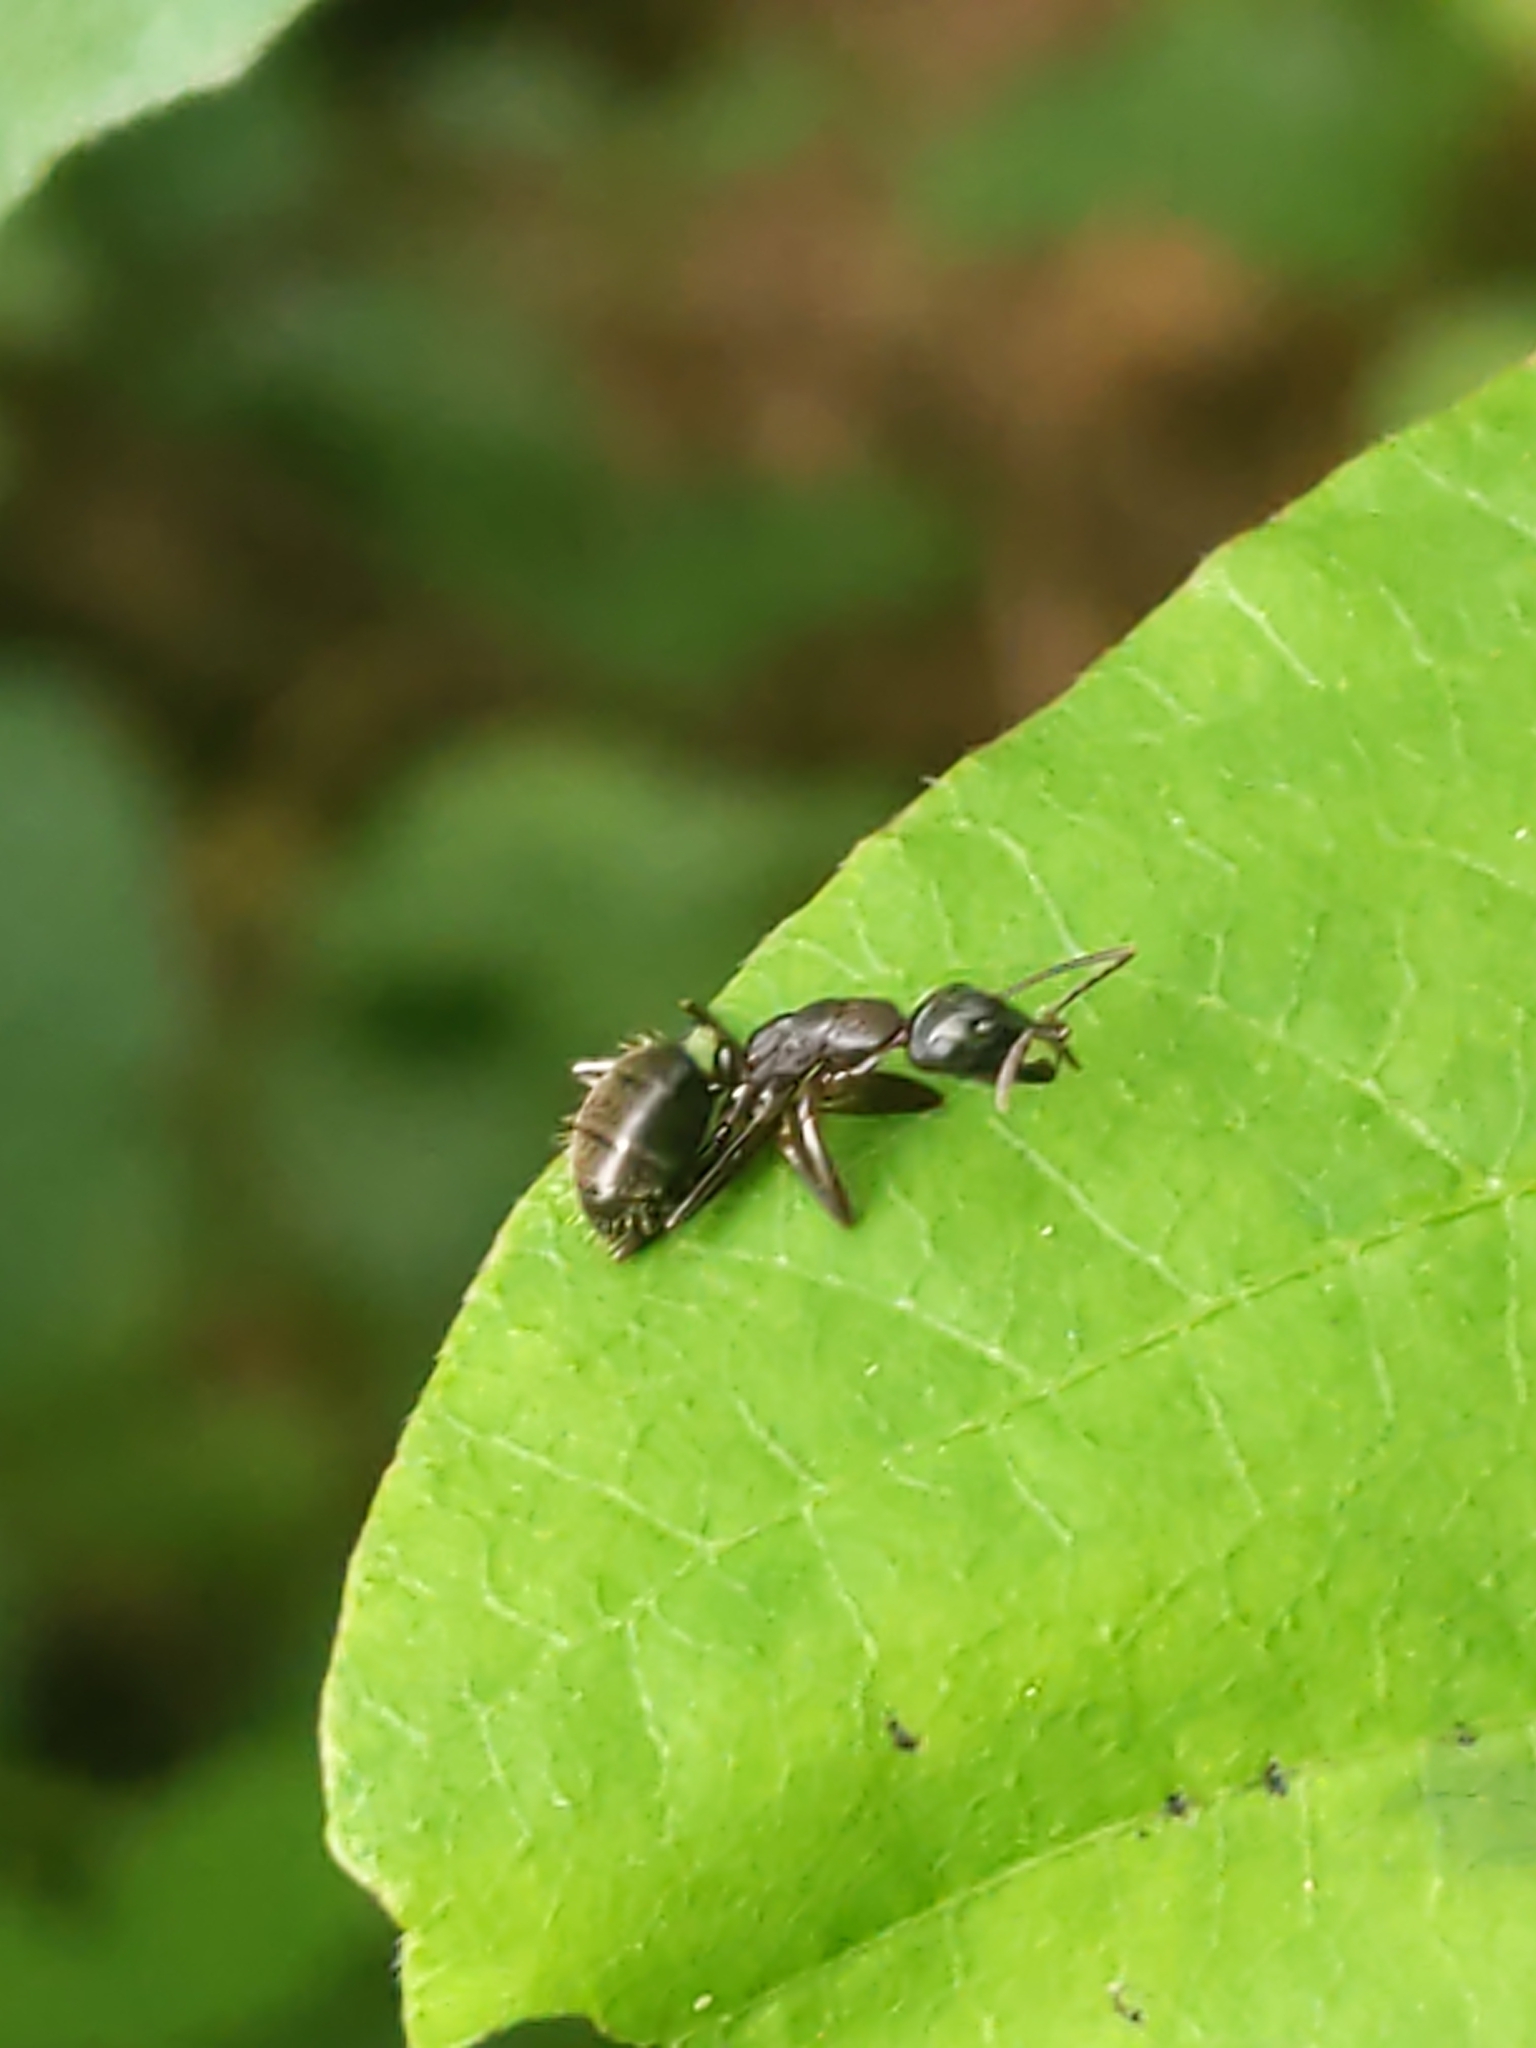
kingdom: Animalia
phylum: Arthropoda
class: Insecta
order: Hymenoptera
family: Formicidae
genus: Camponotus
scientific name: Camponotus pennsylvanicus
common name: Black carpenter ant
